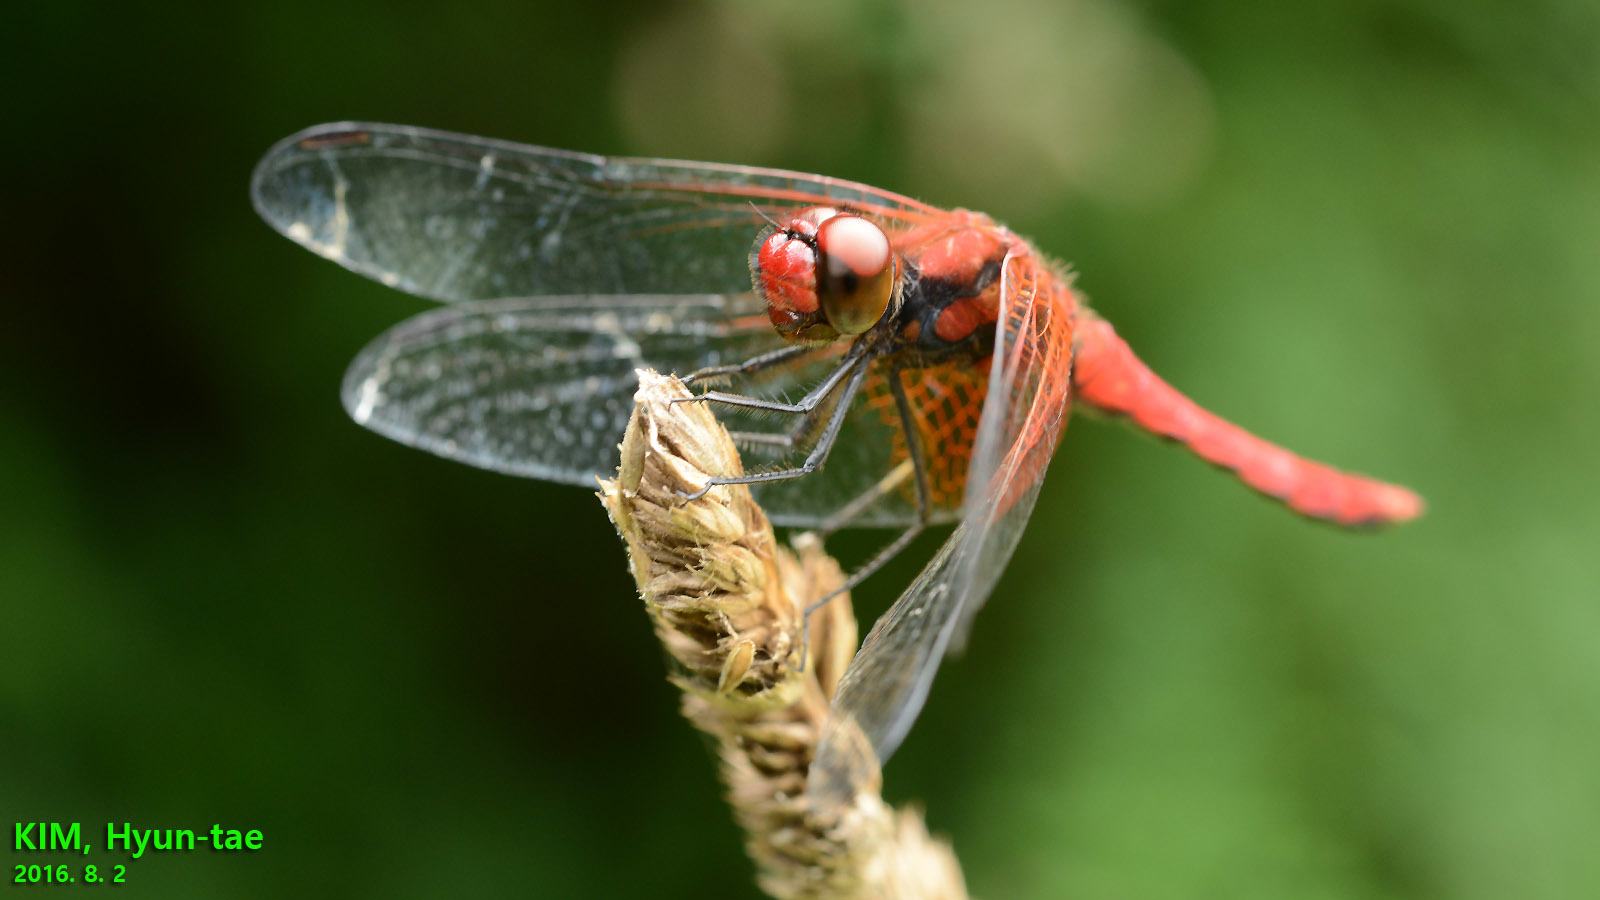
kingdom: Animalia
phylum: Arthropoda
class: Insecta
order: Odonata
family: Libellulidae
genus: Sympetrum
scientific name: Sympetrum speciosum
